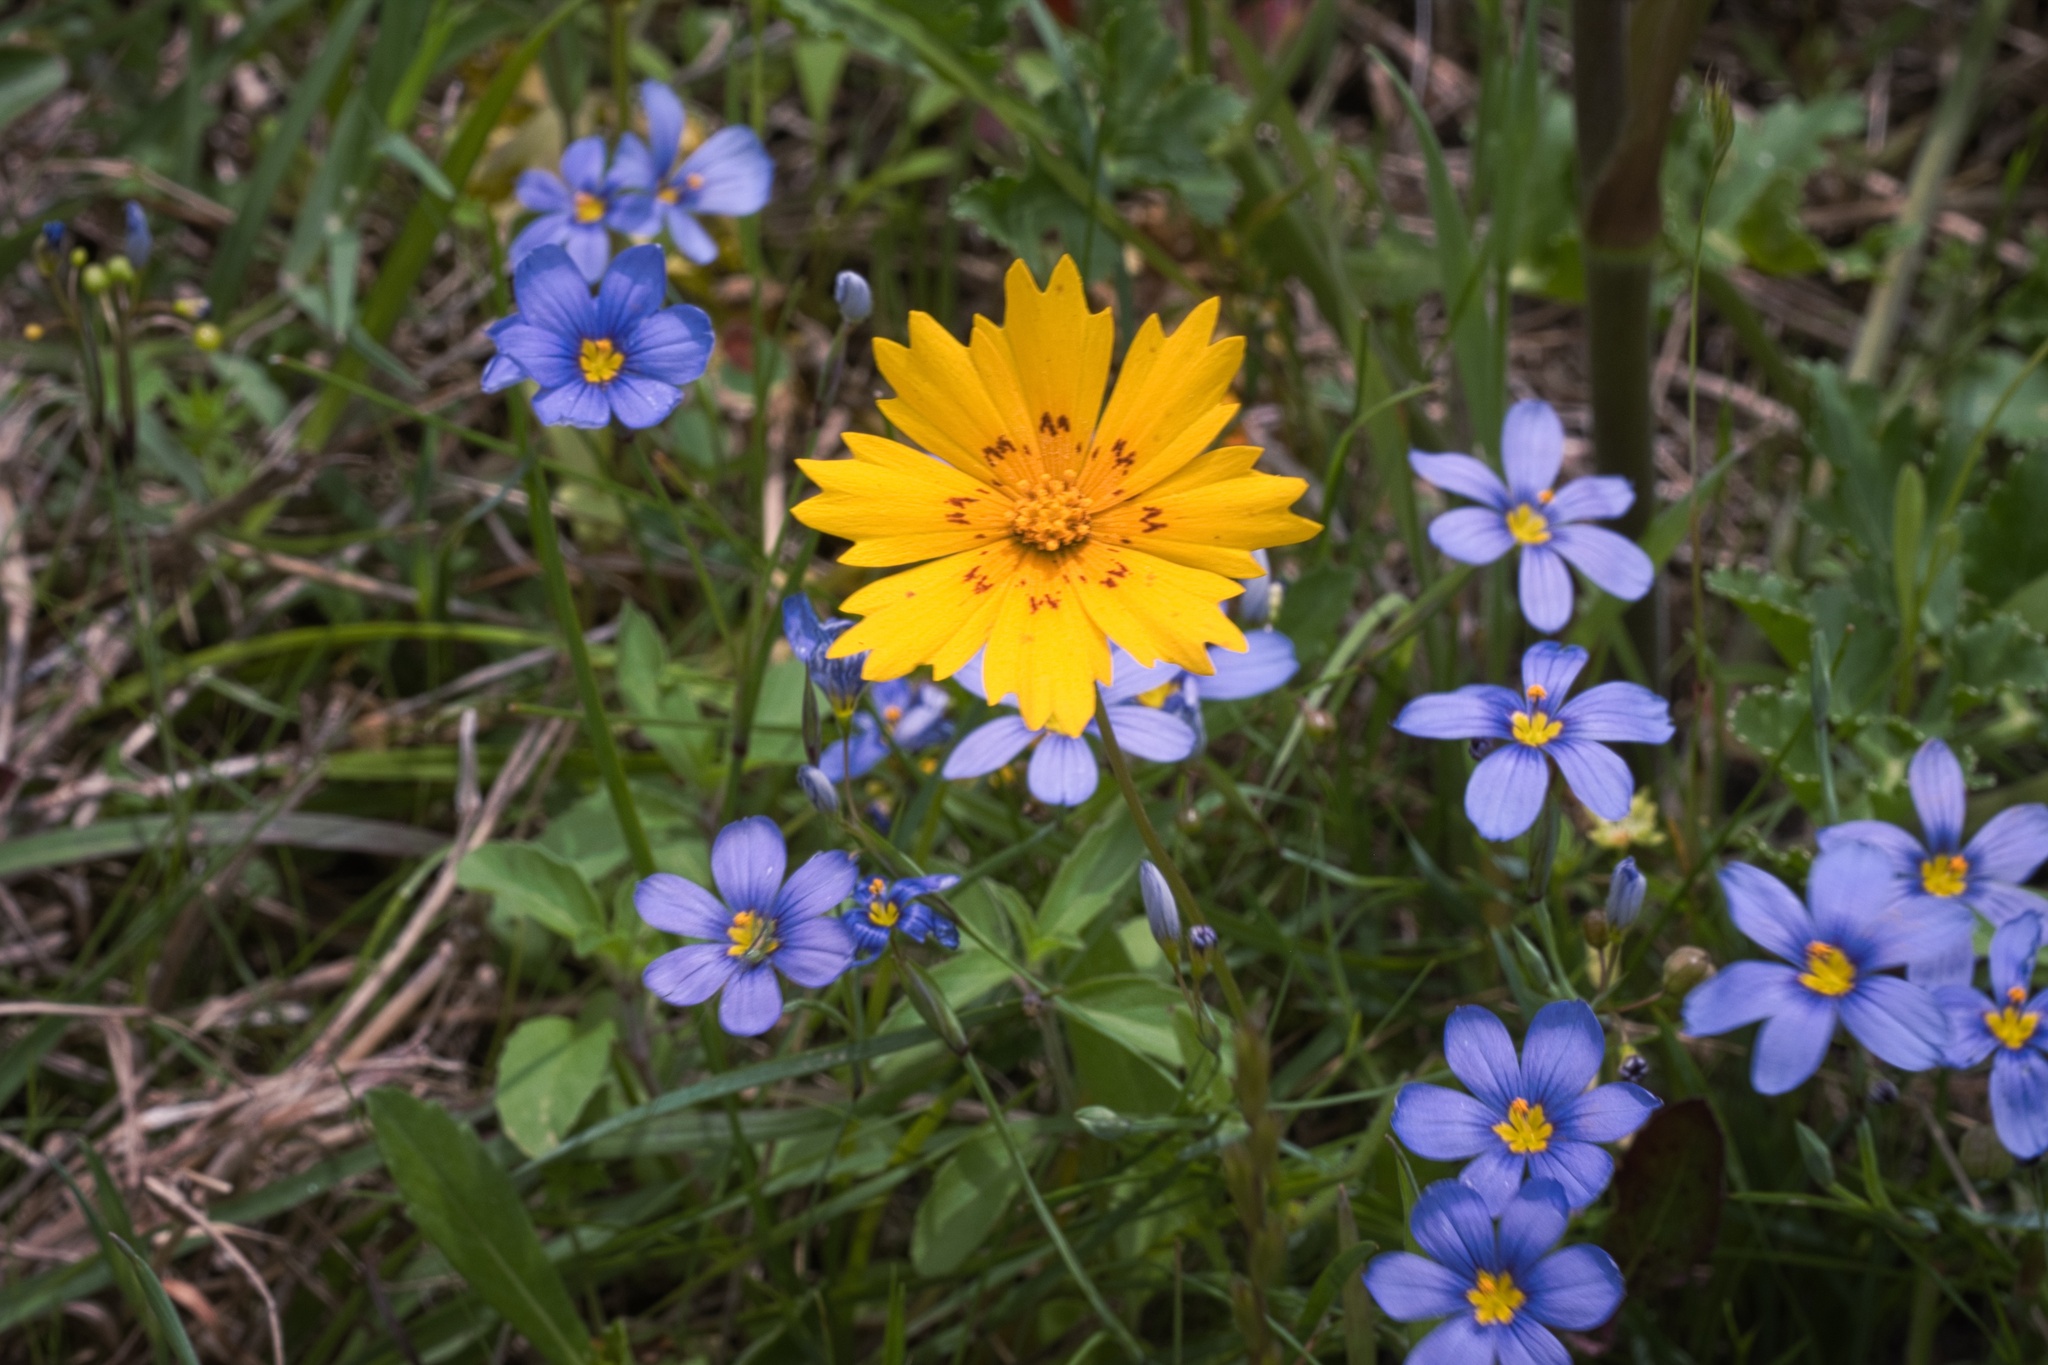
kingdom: Plantae
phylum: Tracheophyta
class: Magnoliopsida
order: Asterales
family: Asteraceae
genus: Coreopsis
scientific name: Coreopsis nuecensis
